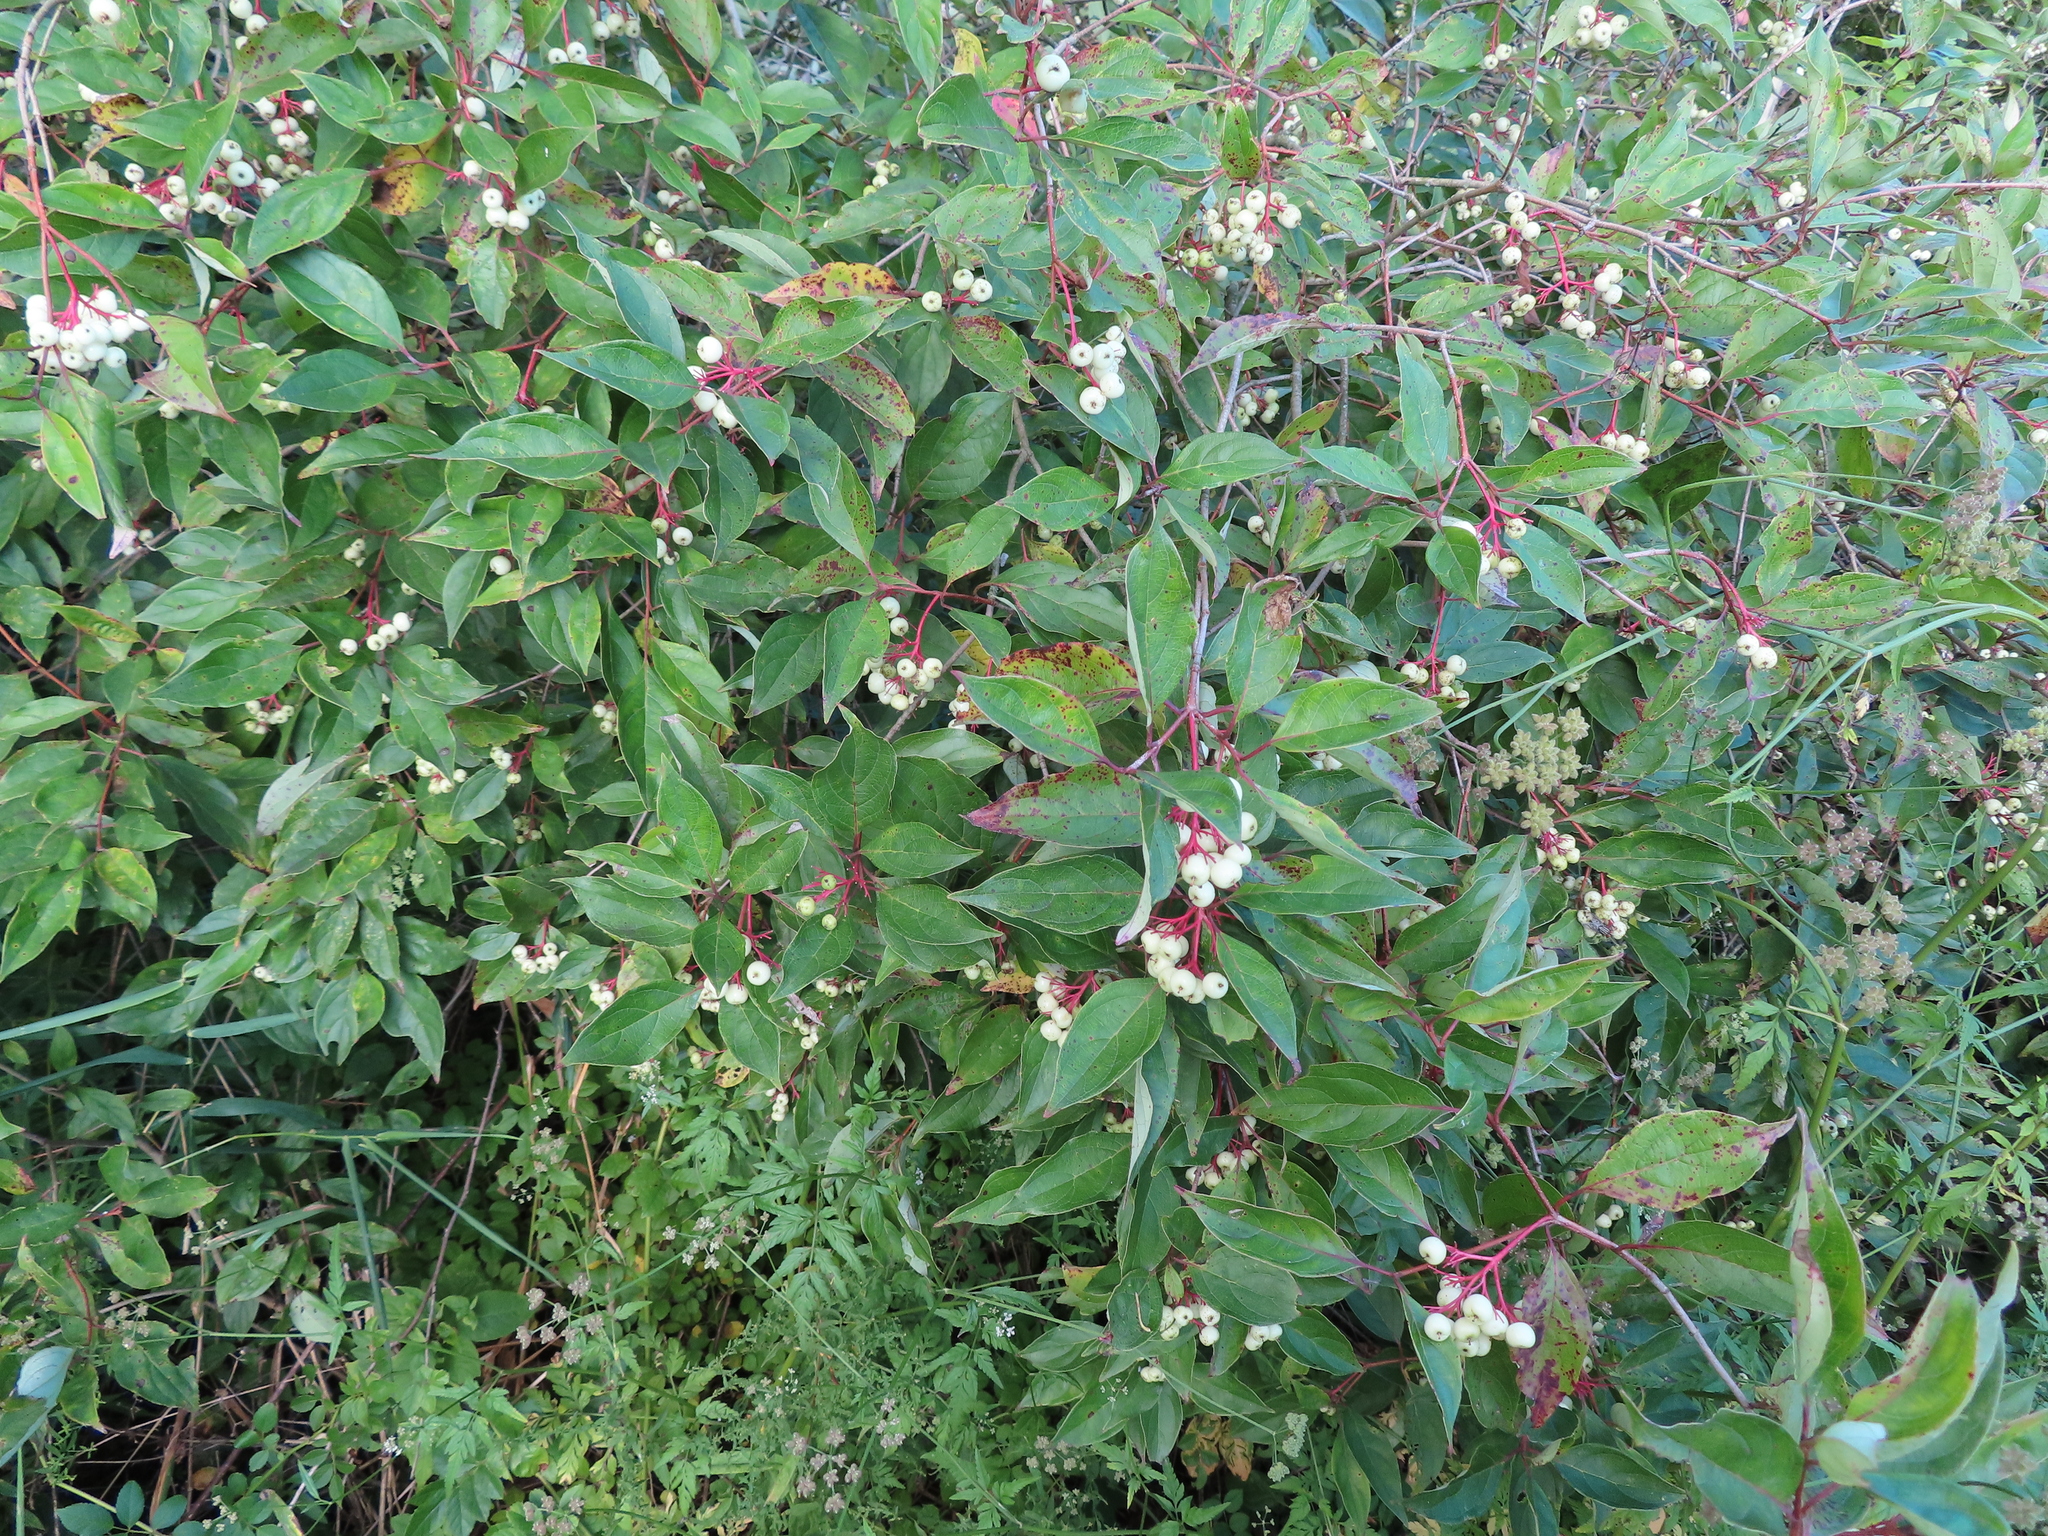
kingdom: Plantae
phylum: Tracheophyta
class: Magnoliopsida
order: Cornales
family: Cornaceae
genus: Cornus
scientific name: Cornus racemosa
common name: Panicled dogwood
